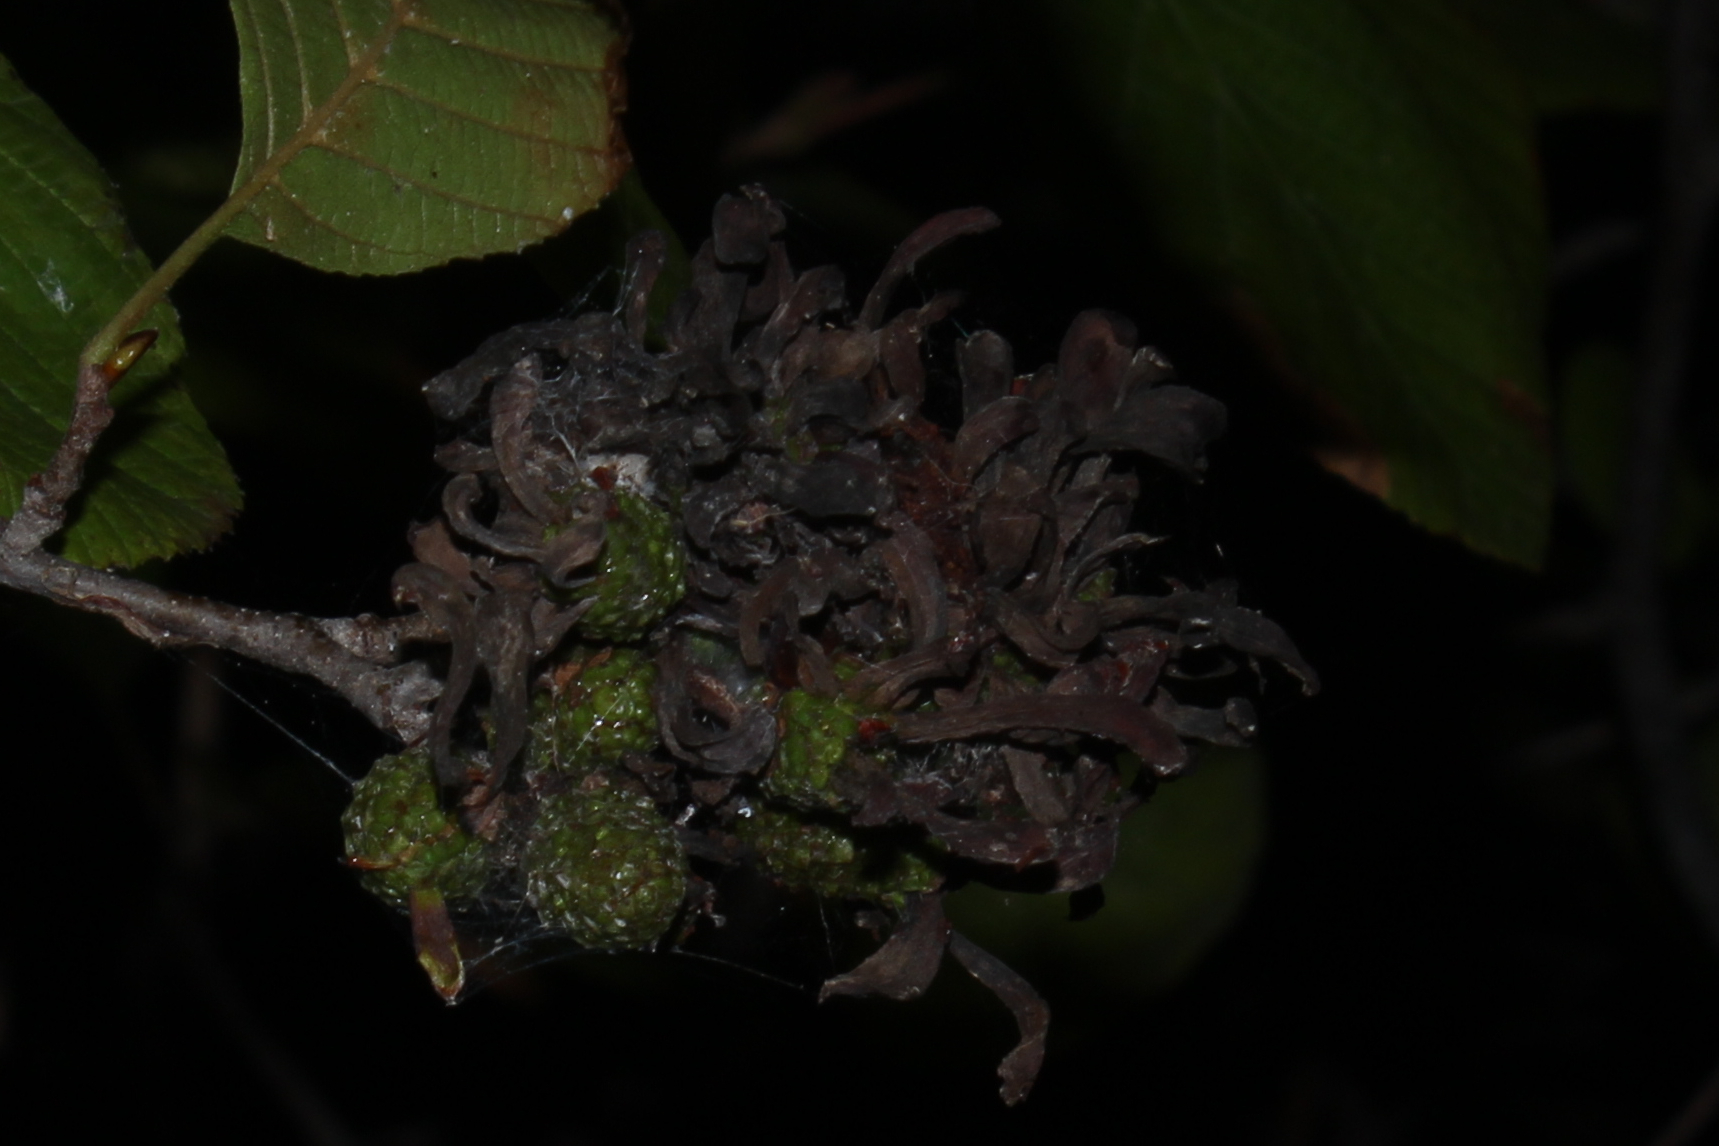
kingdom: Fungi
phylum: Ascomycota
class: Taphrinomycetes
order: Taphrinales
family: Taphrinaceae
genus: Taphrina
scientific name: Taphrina robinsoniana
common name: Eastern american alder tongue gall fungus
